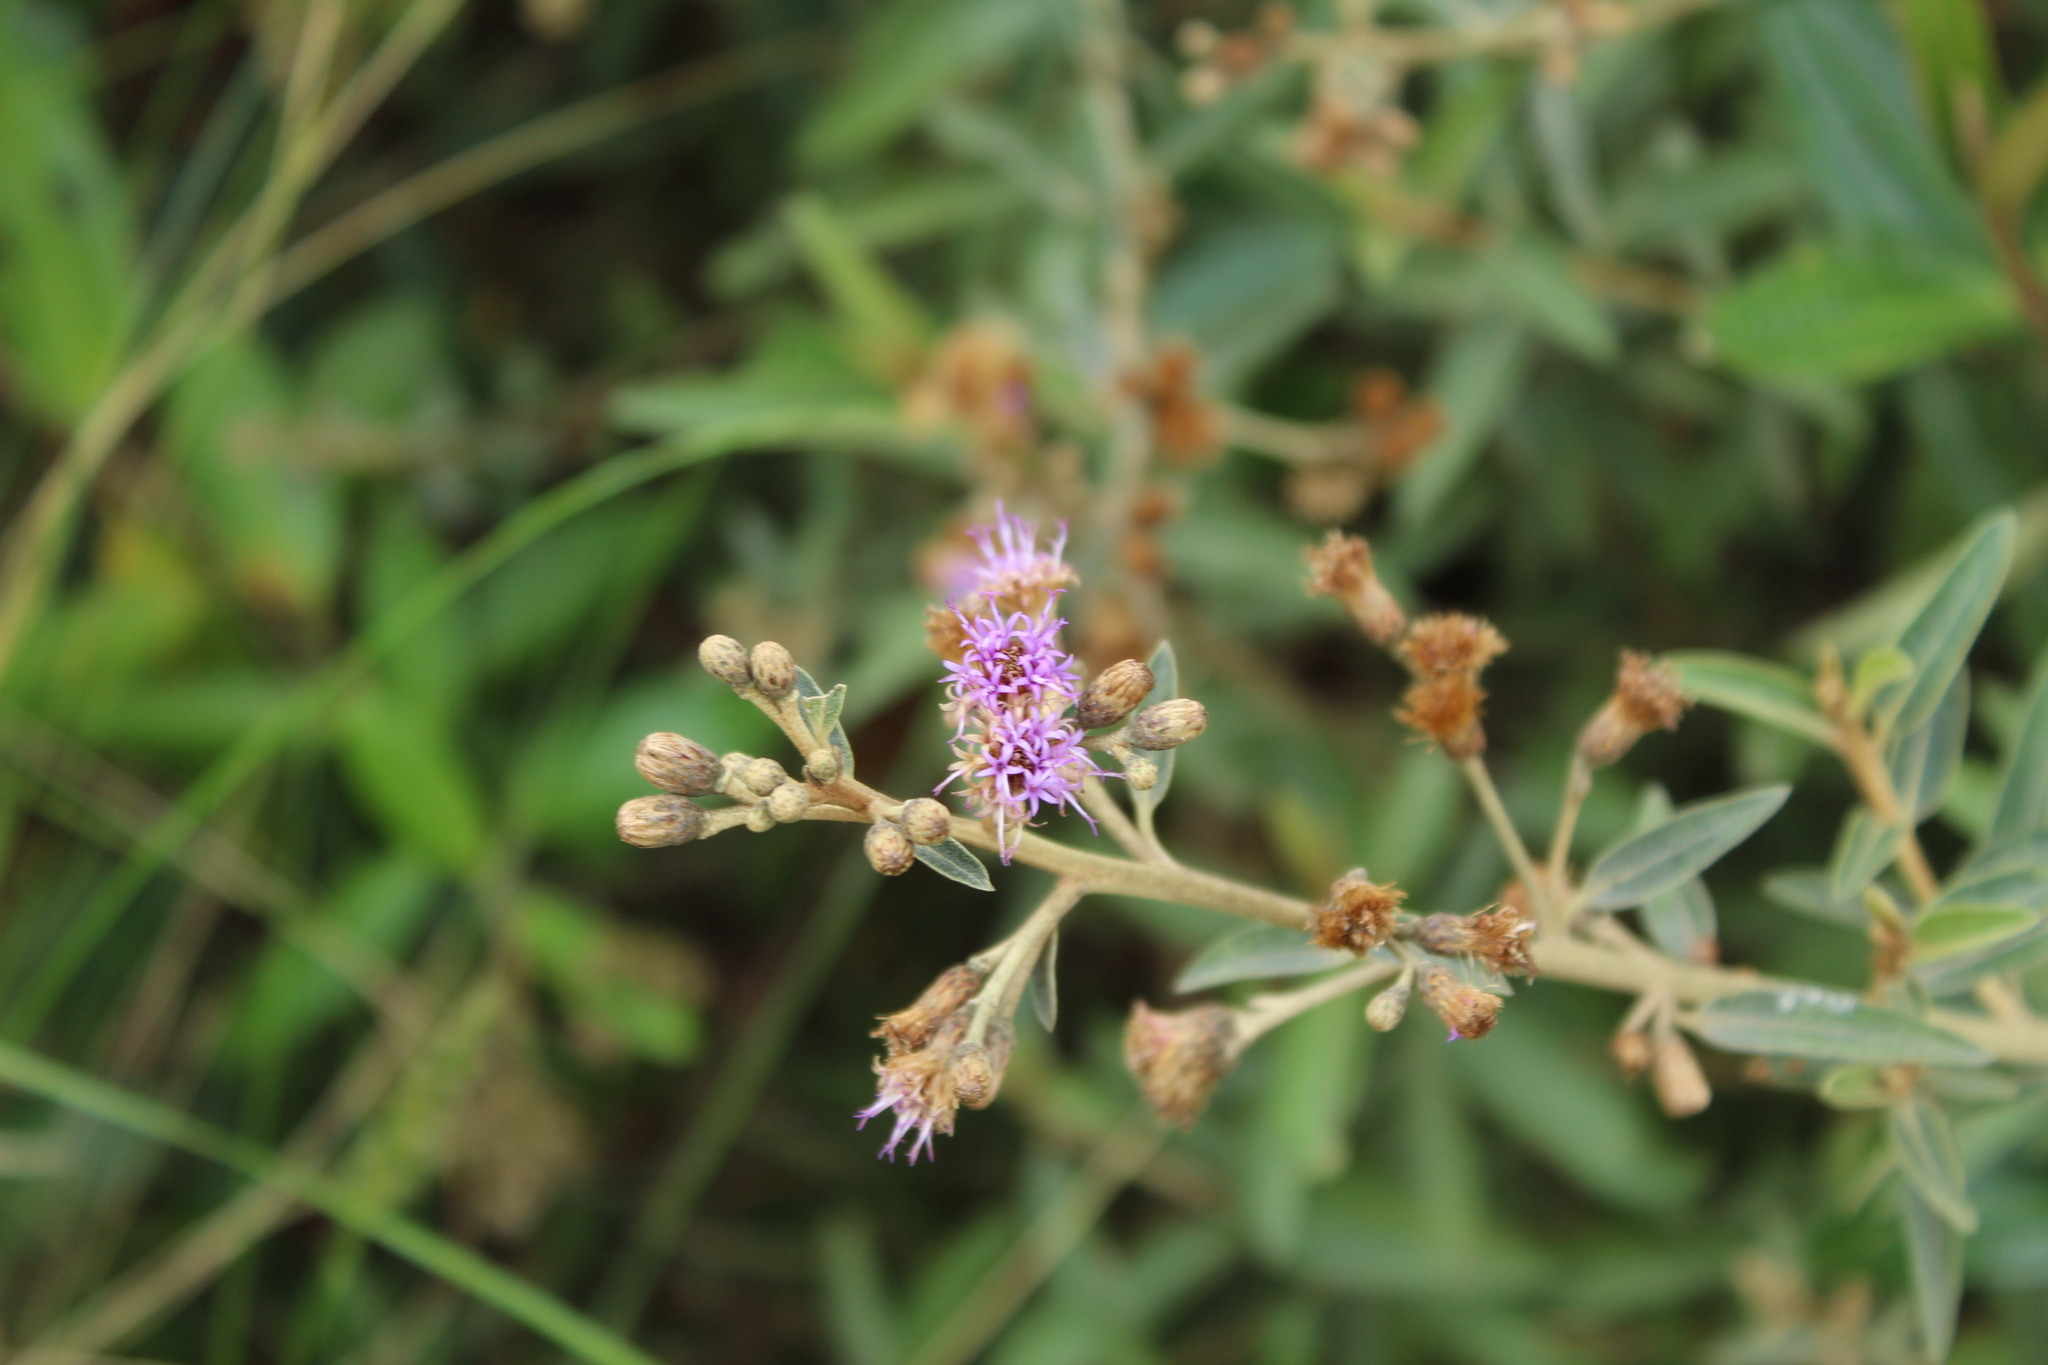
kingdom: Plantae
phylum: Tracheophyta
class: Magnoliopsida
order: Asterales
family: Asteraceae
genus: Lepidaploa
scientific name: Lepidaploa karstenii
